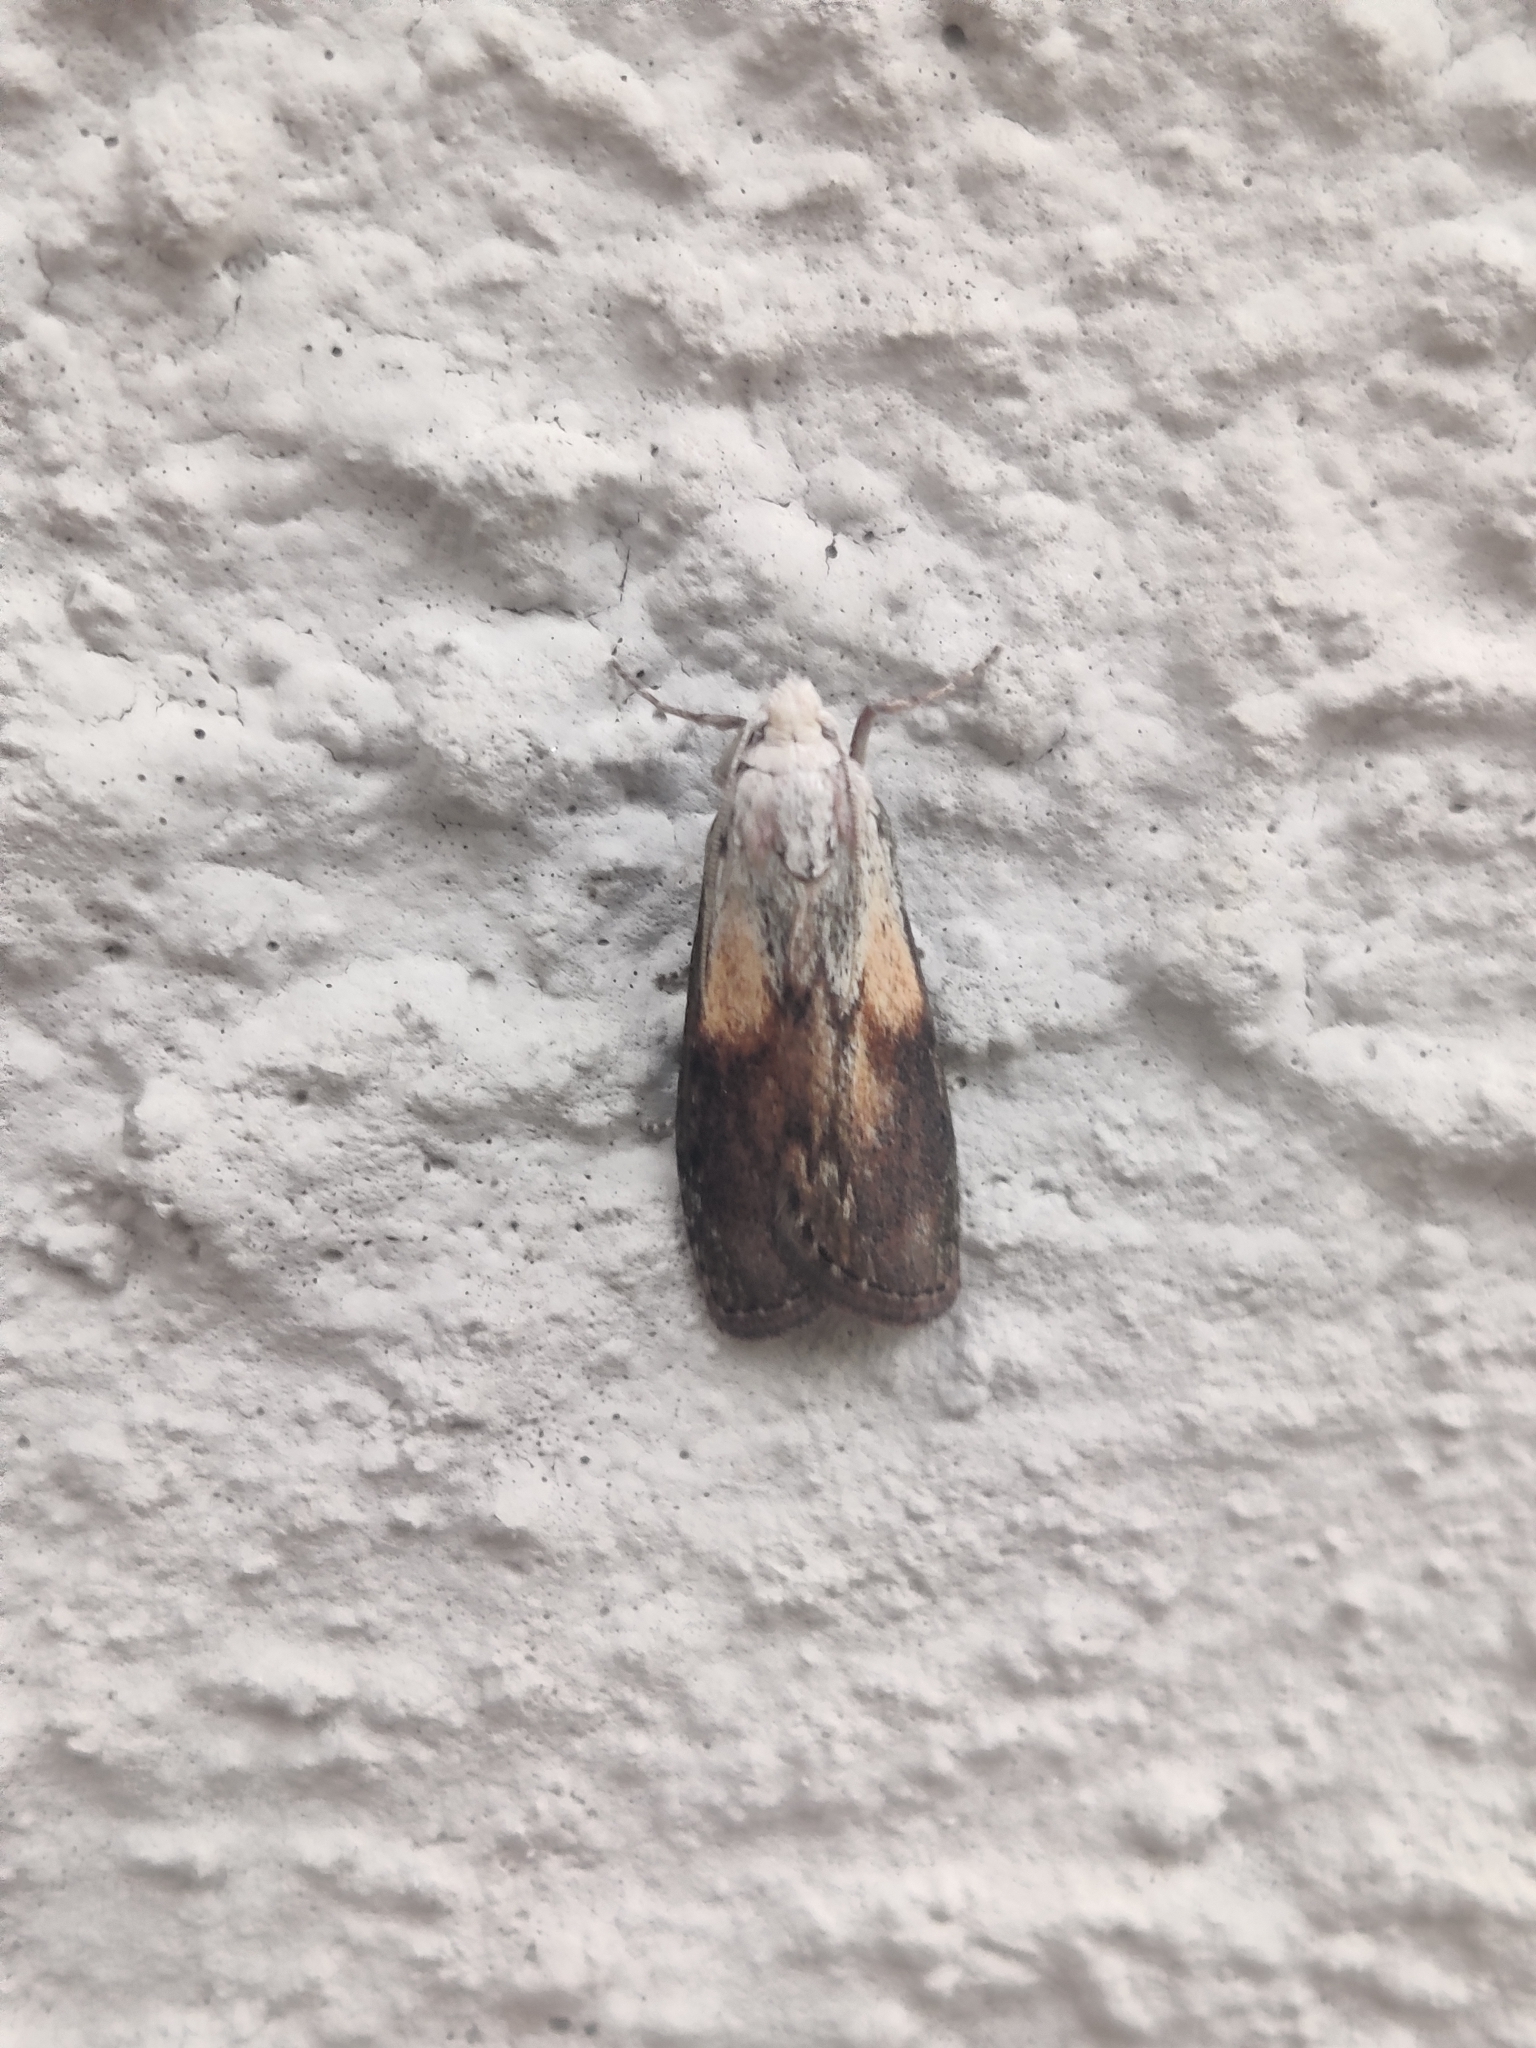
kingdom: Animalia
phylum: Arthropoda
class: Insecta
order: Lepidoptera
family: Pyralidae
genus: Aphomia
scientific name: Aphomia sociella
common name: Bee moth
